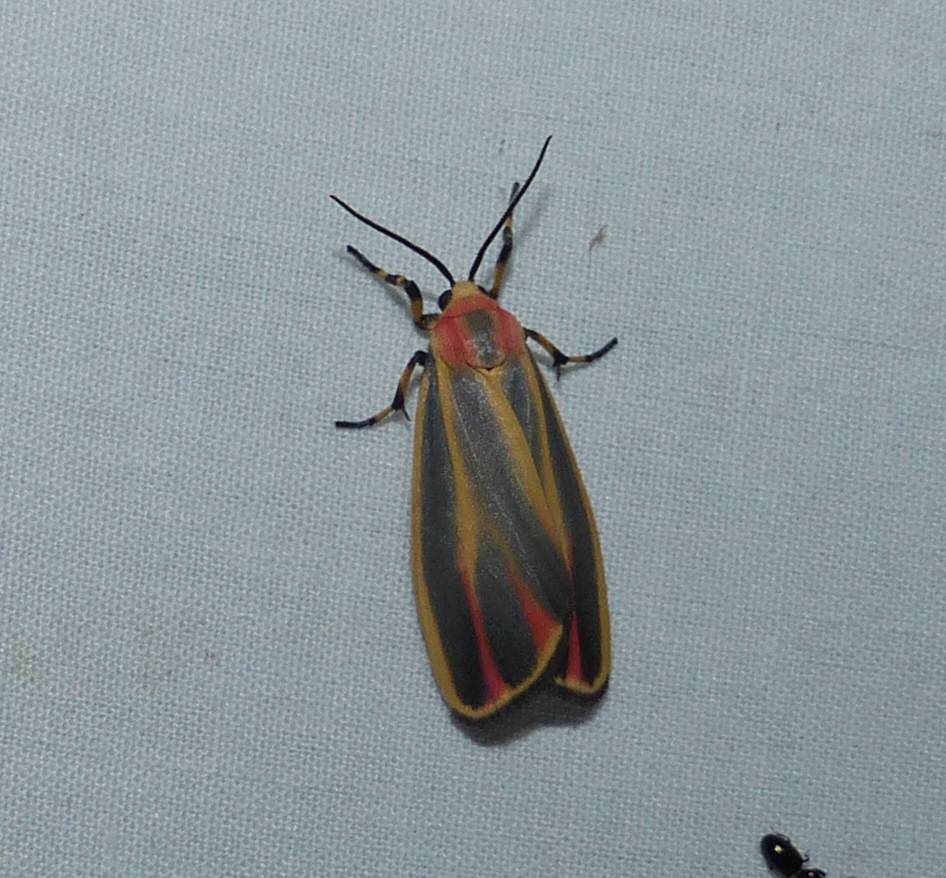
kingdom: Animalia
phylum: Arthropoda
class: Insecta
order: Lepidoptera
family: Erebidae
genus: Hypoprepia
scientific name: Hypoprepia fucosa
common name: Painted lichen moth
